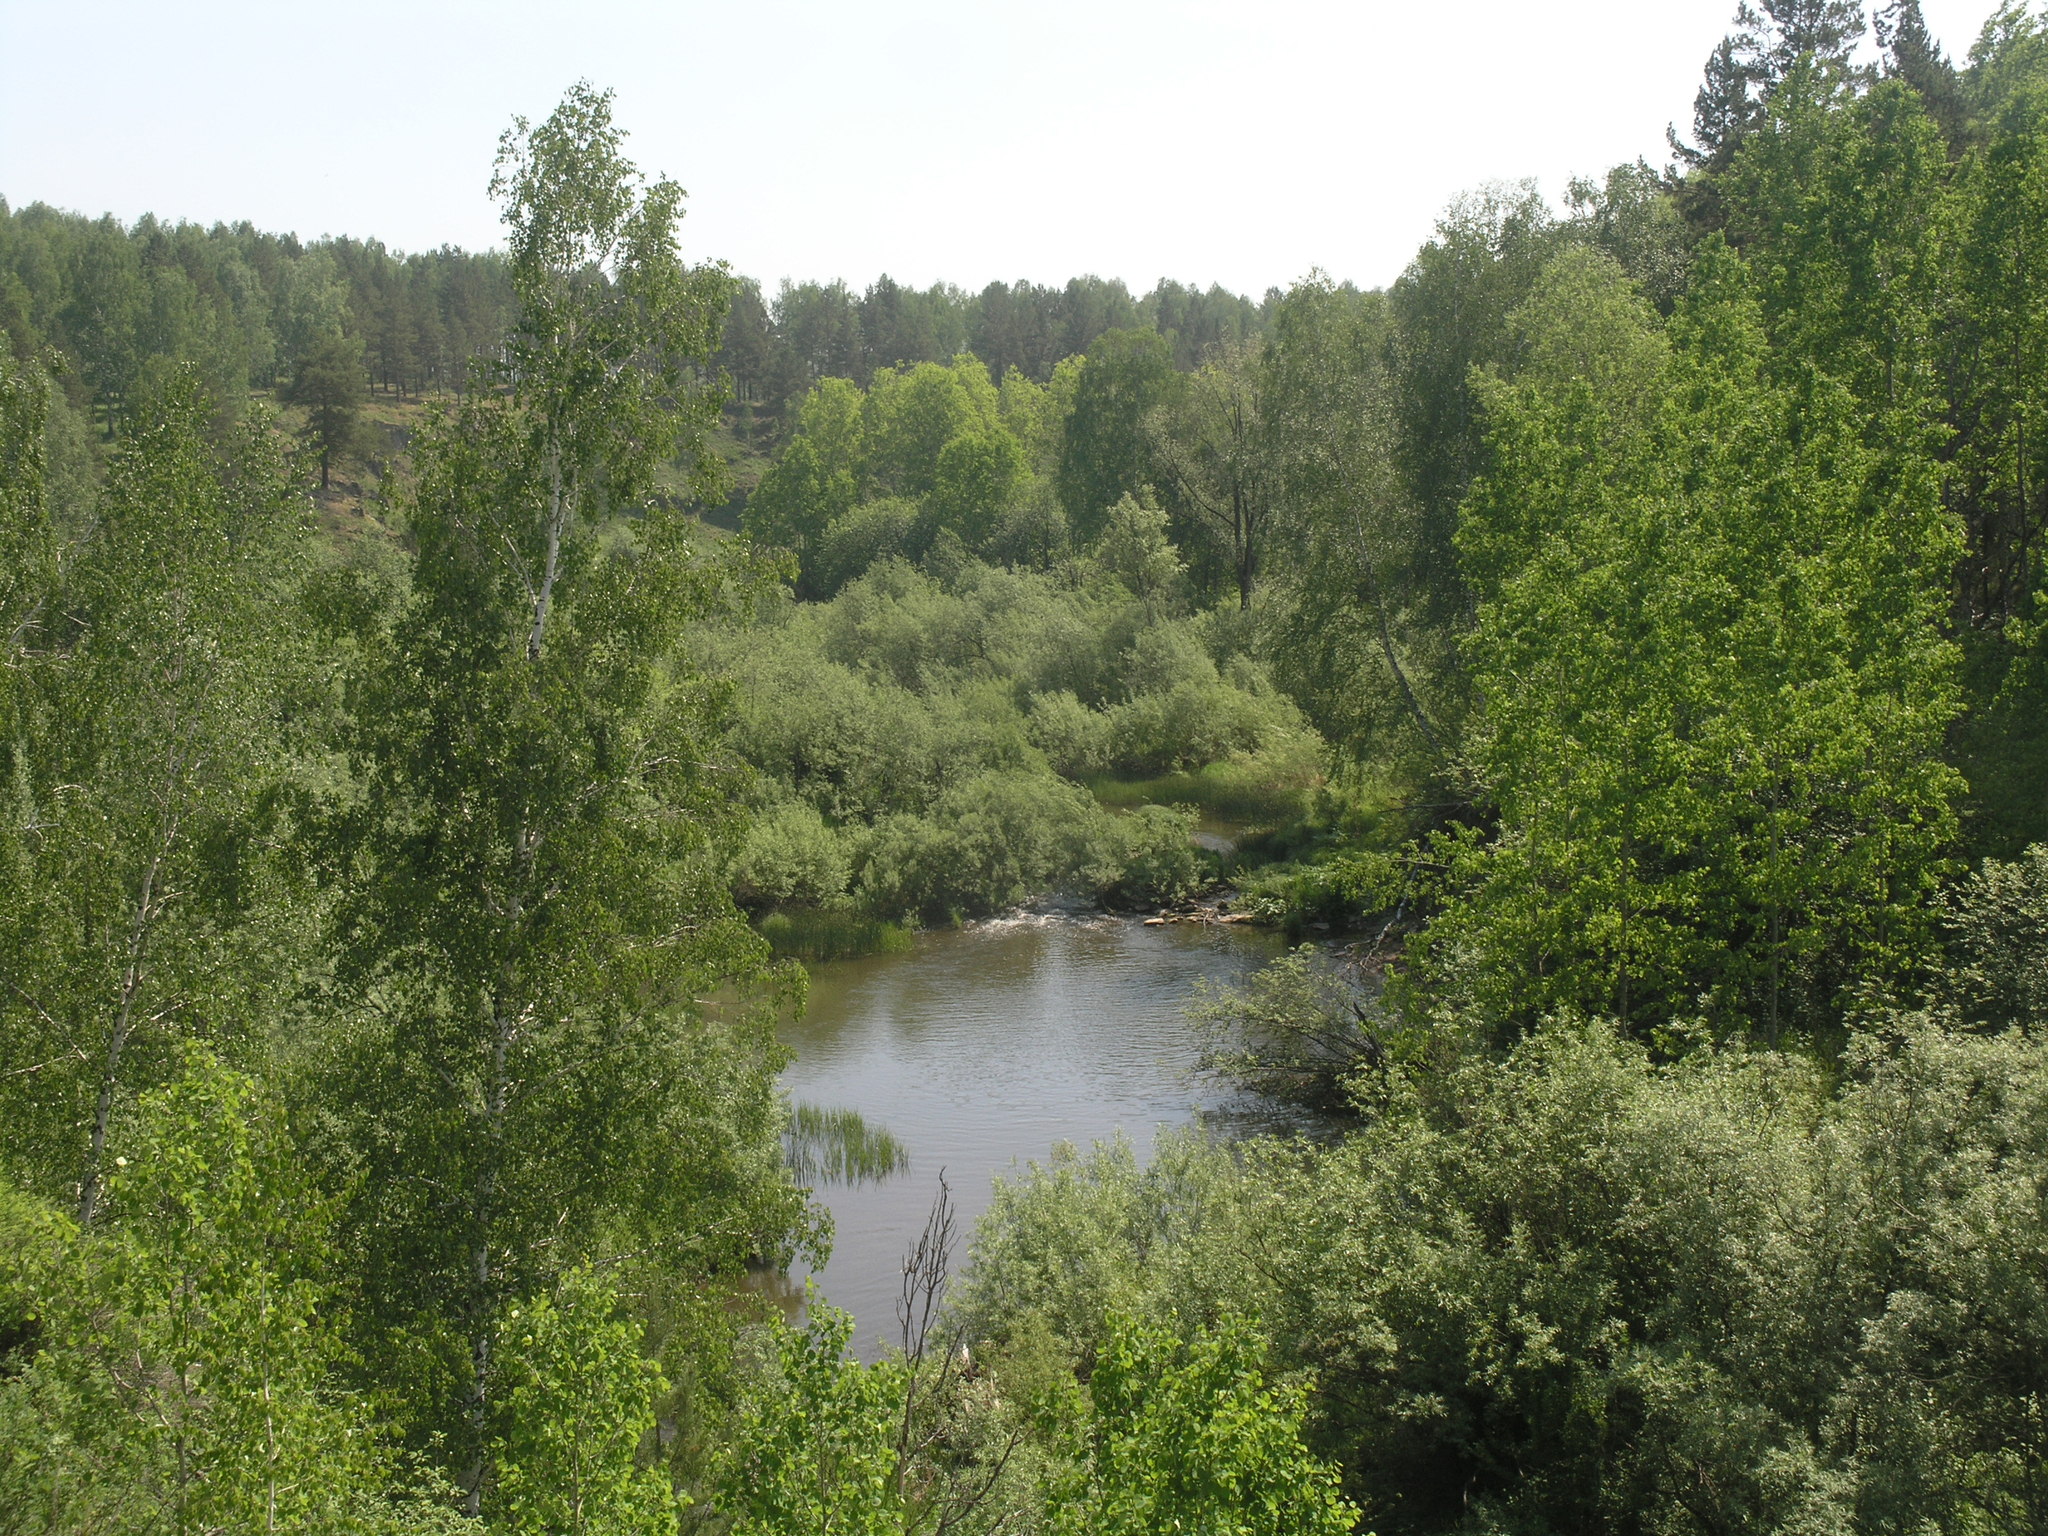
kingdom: Plantae
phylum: Tracheophyta
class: Magnoliopsida
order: Fagales
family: Betulaceae
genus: Betula
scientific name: Betula pendula
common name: Silver birch
